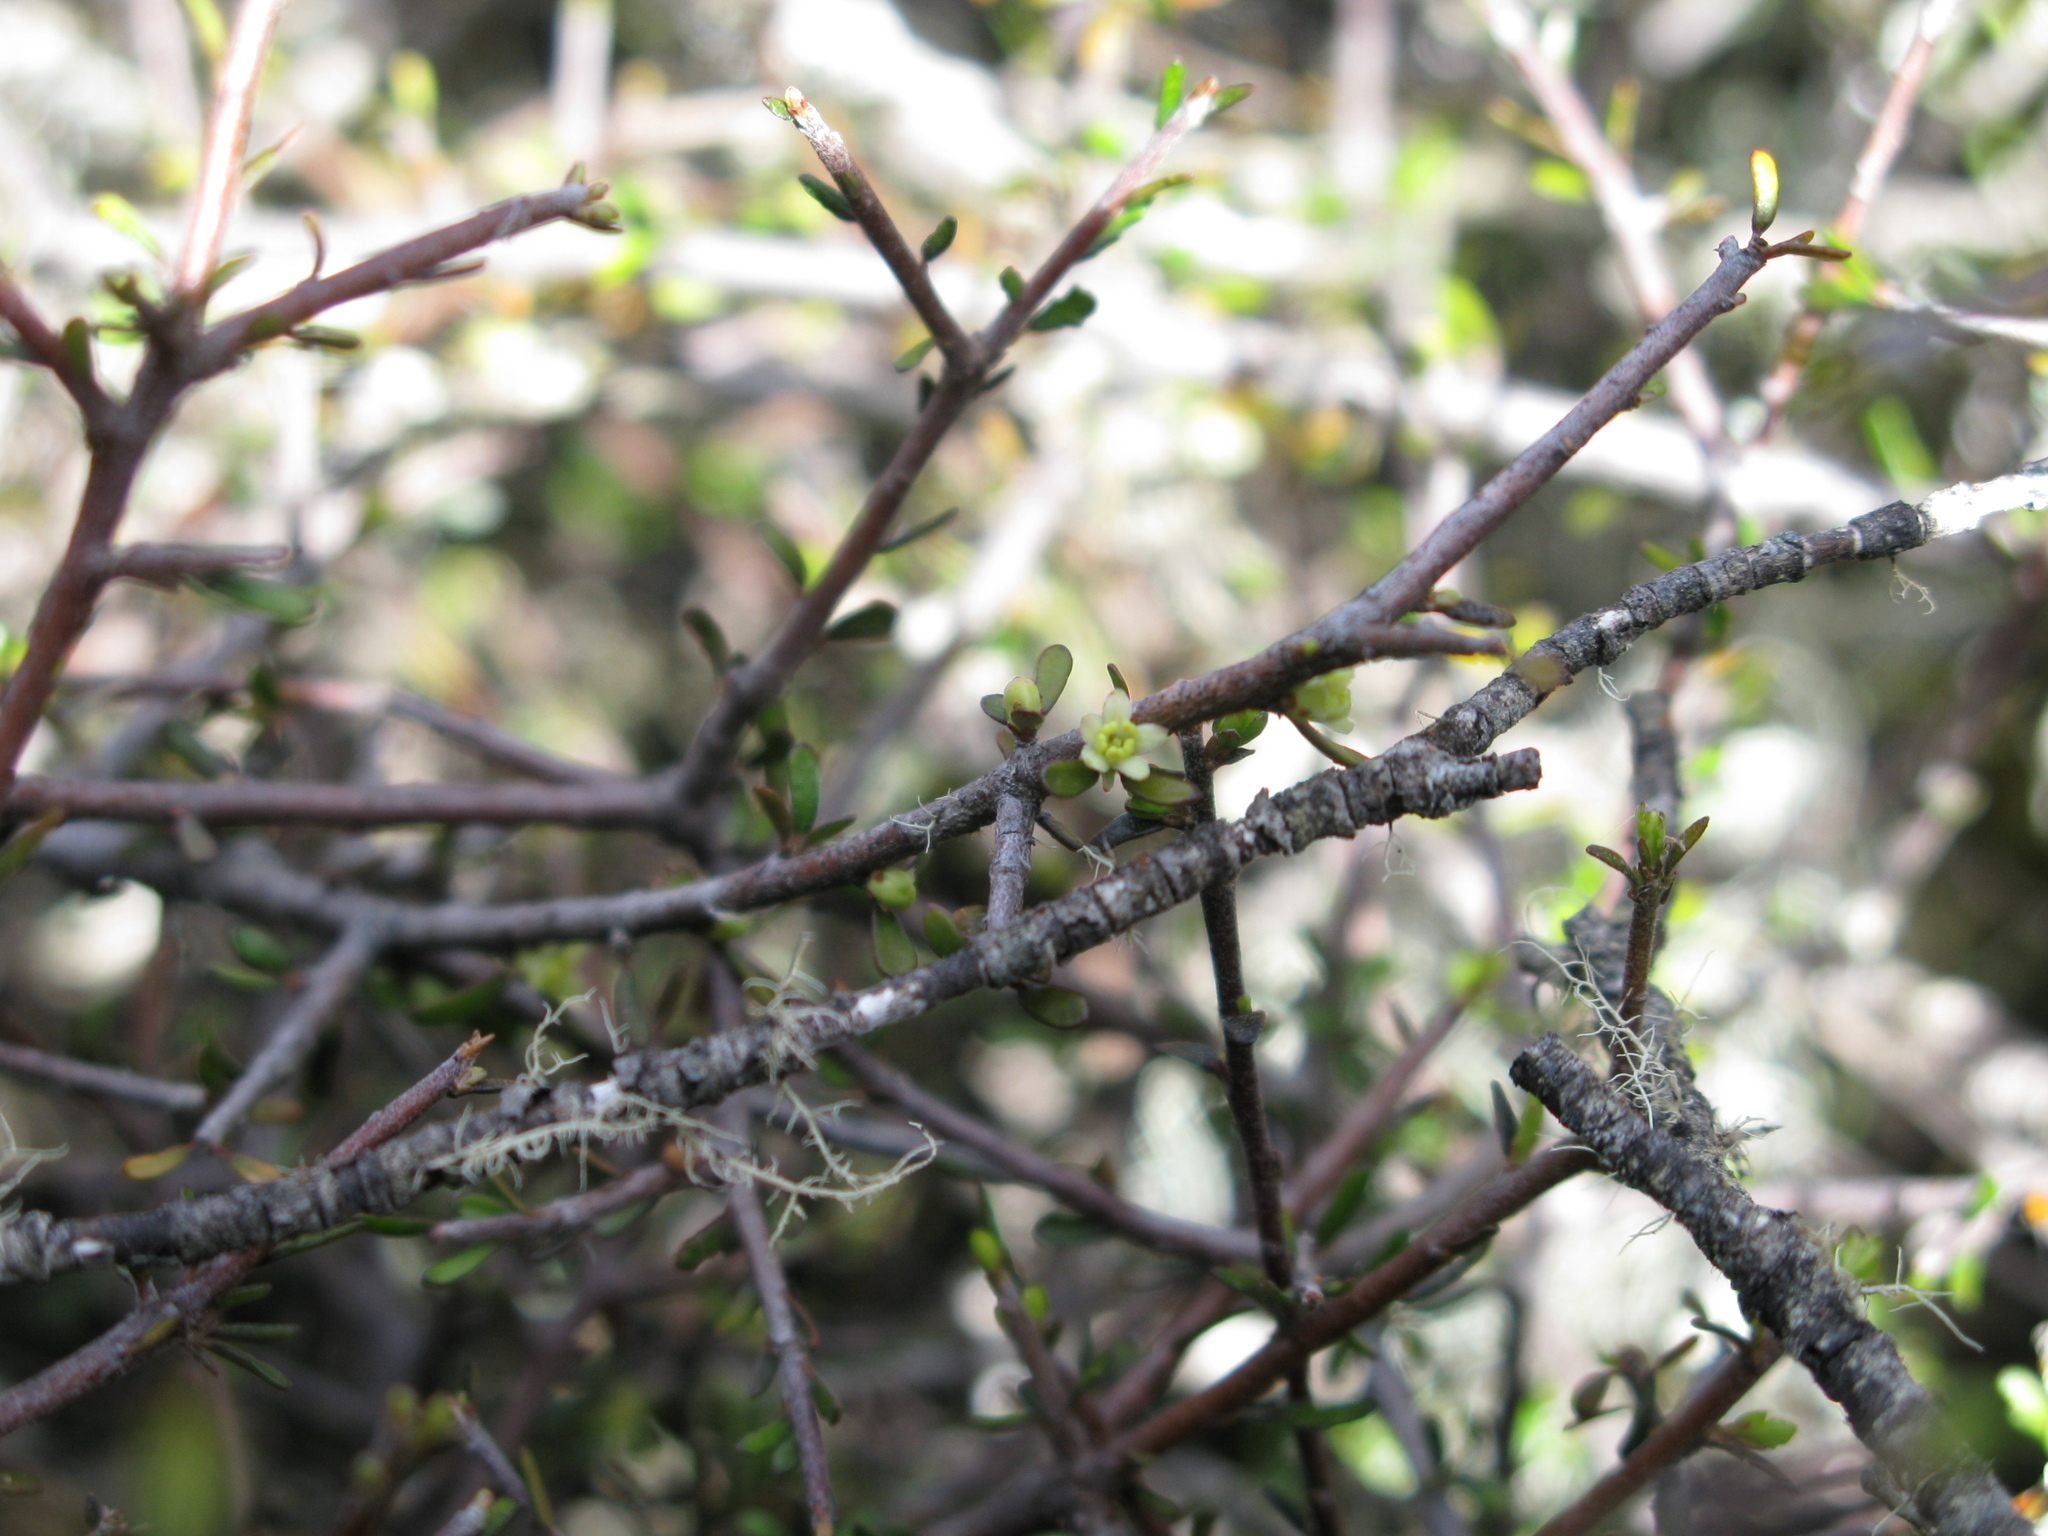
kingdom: Plantae
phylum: Tracheophyta
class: Magnoliopsida
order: Apiales
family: Pittosporaceae
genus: Pittosporum
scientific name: Pittosporum anomalum
